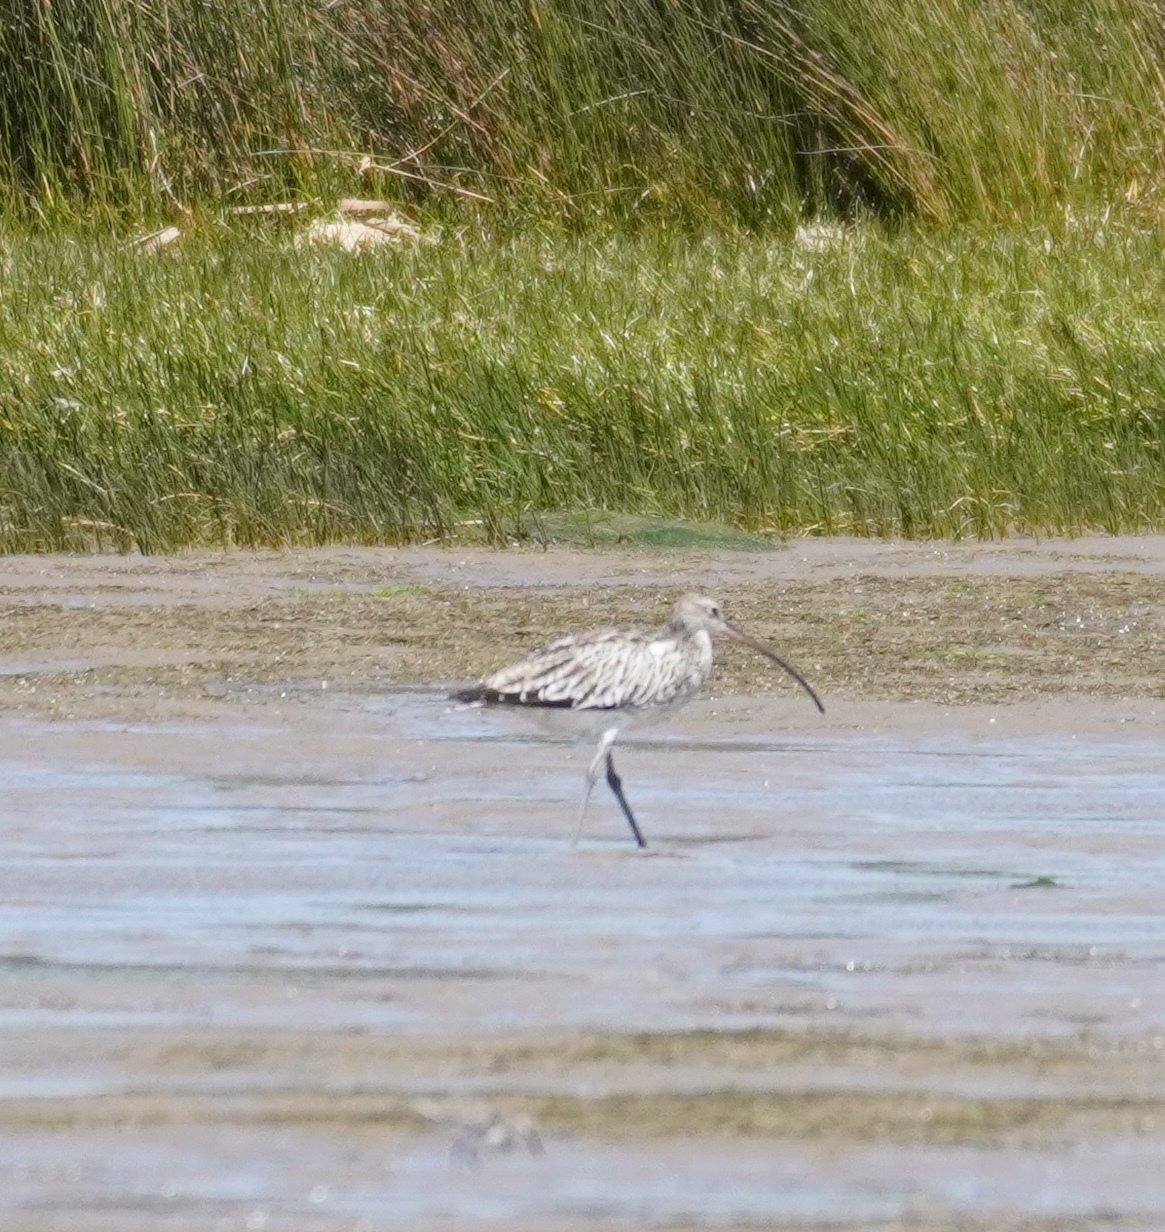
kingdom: Animalia
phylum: Chordata
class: Aves
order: Charadriiformes
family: Scolopacidae
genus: Numenius
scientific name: Numenius arquata
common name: Eurasian curlew
